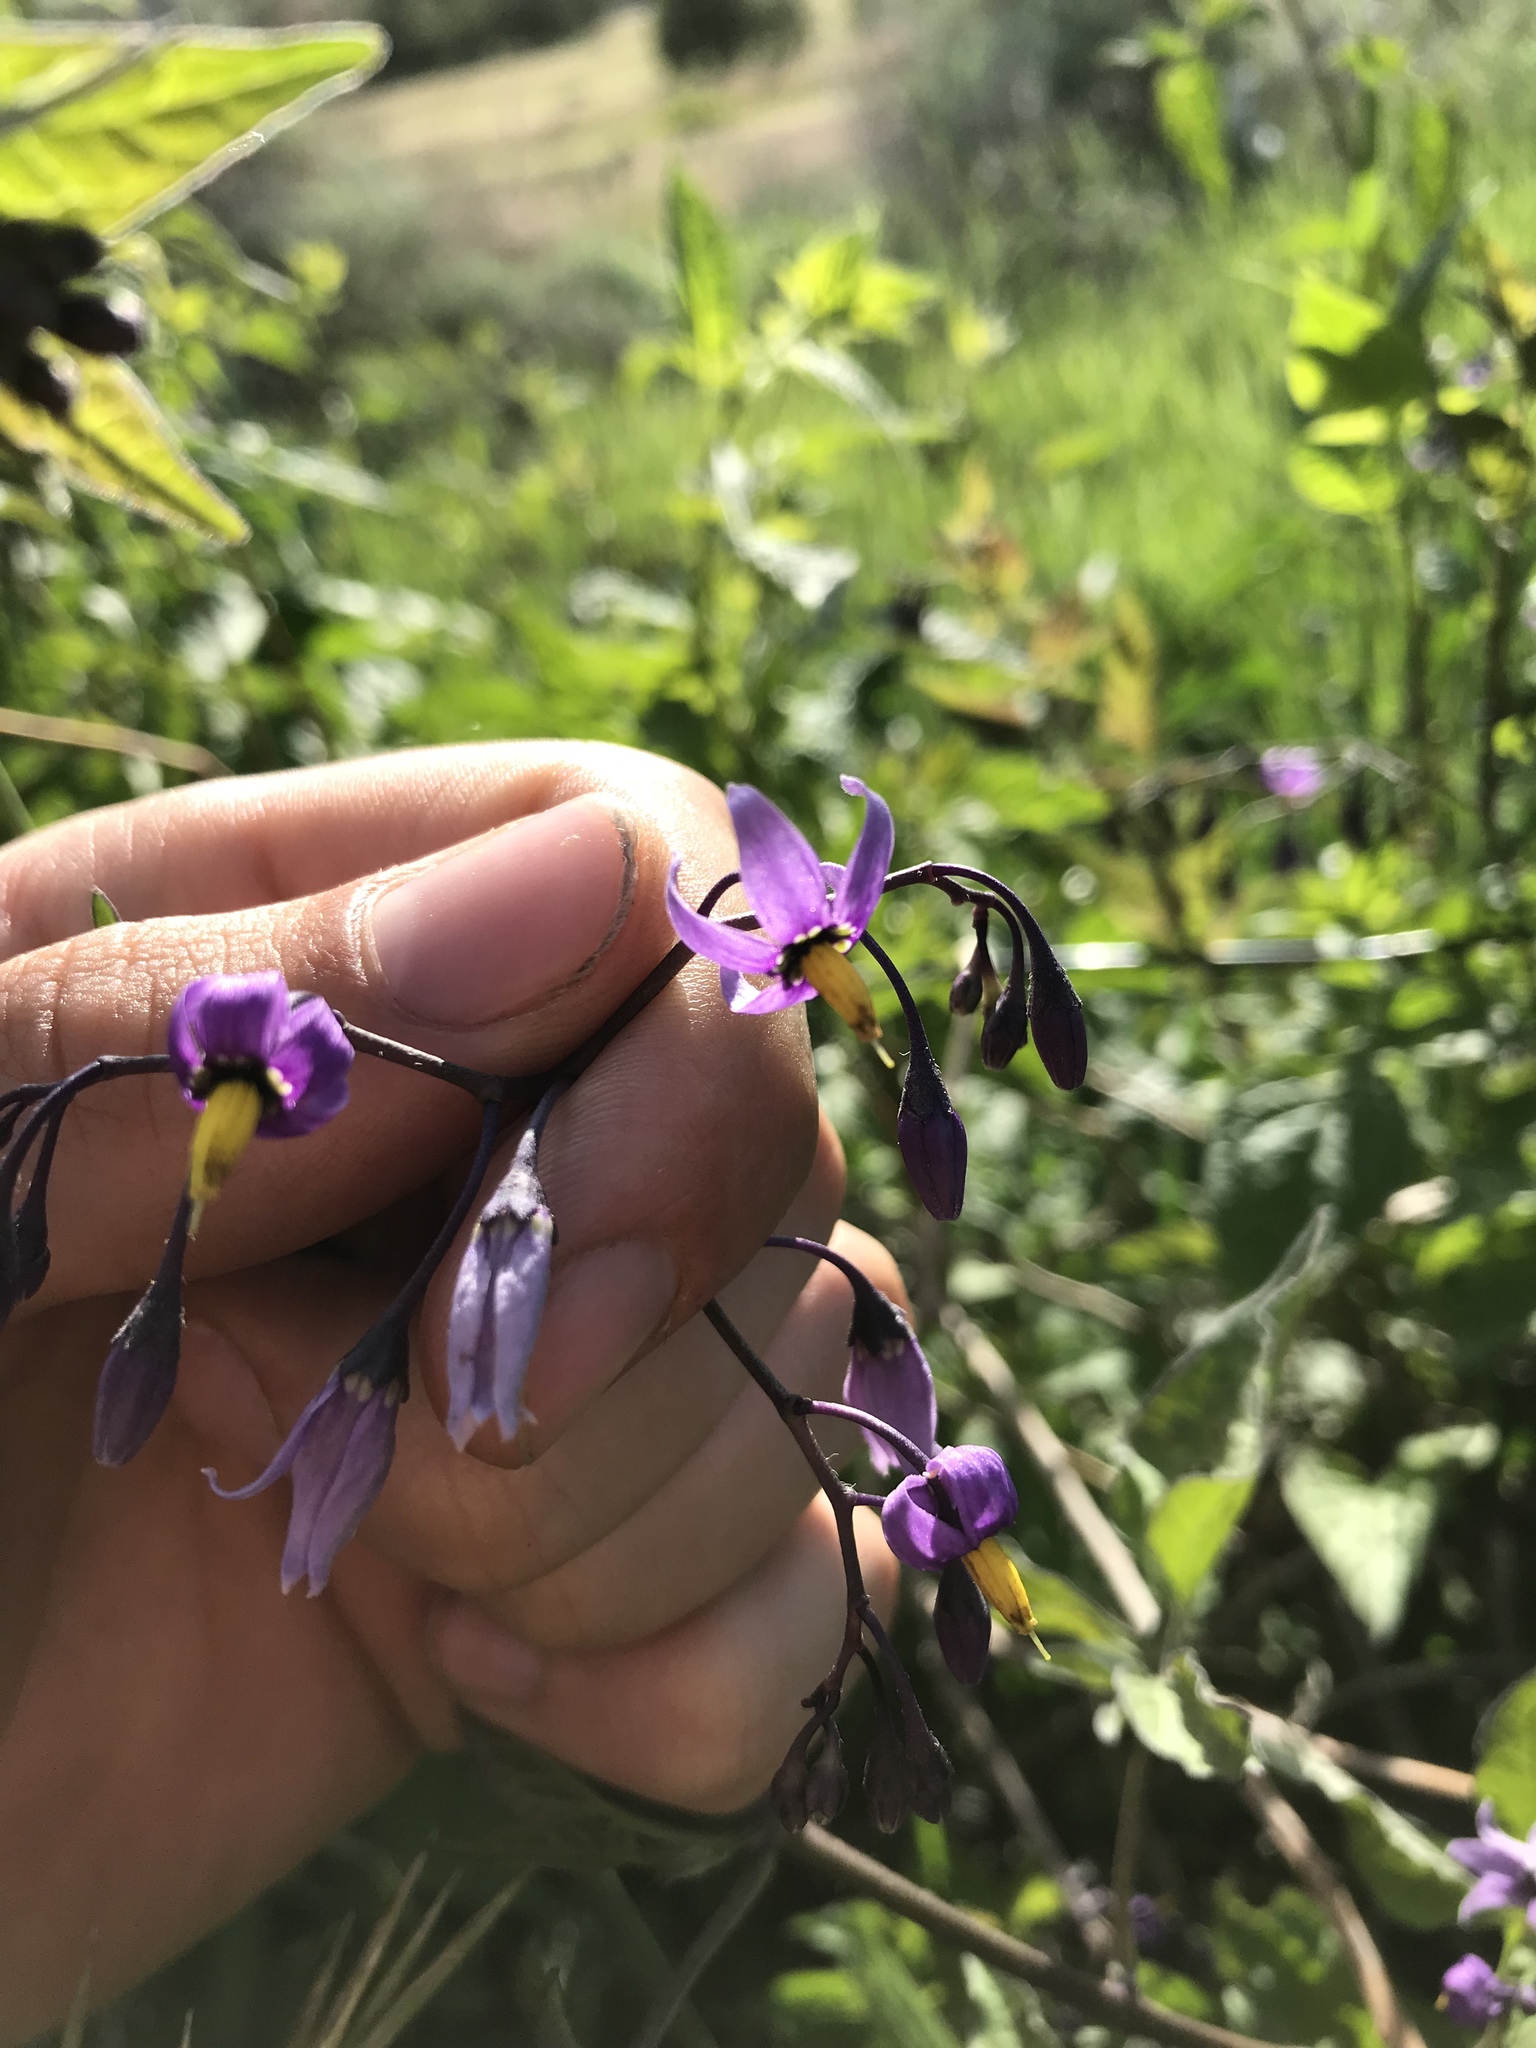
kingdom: Plantae
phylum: Tracheophyta
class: Magnoliopsida
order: Solanales
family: Solanaceae
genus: Solanum
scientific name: Solanum dulcamara
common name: Climbing nightshade
